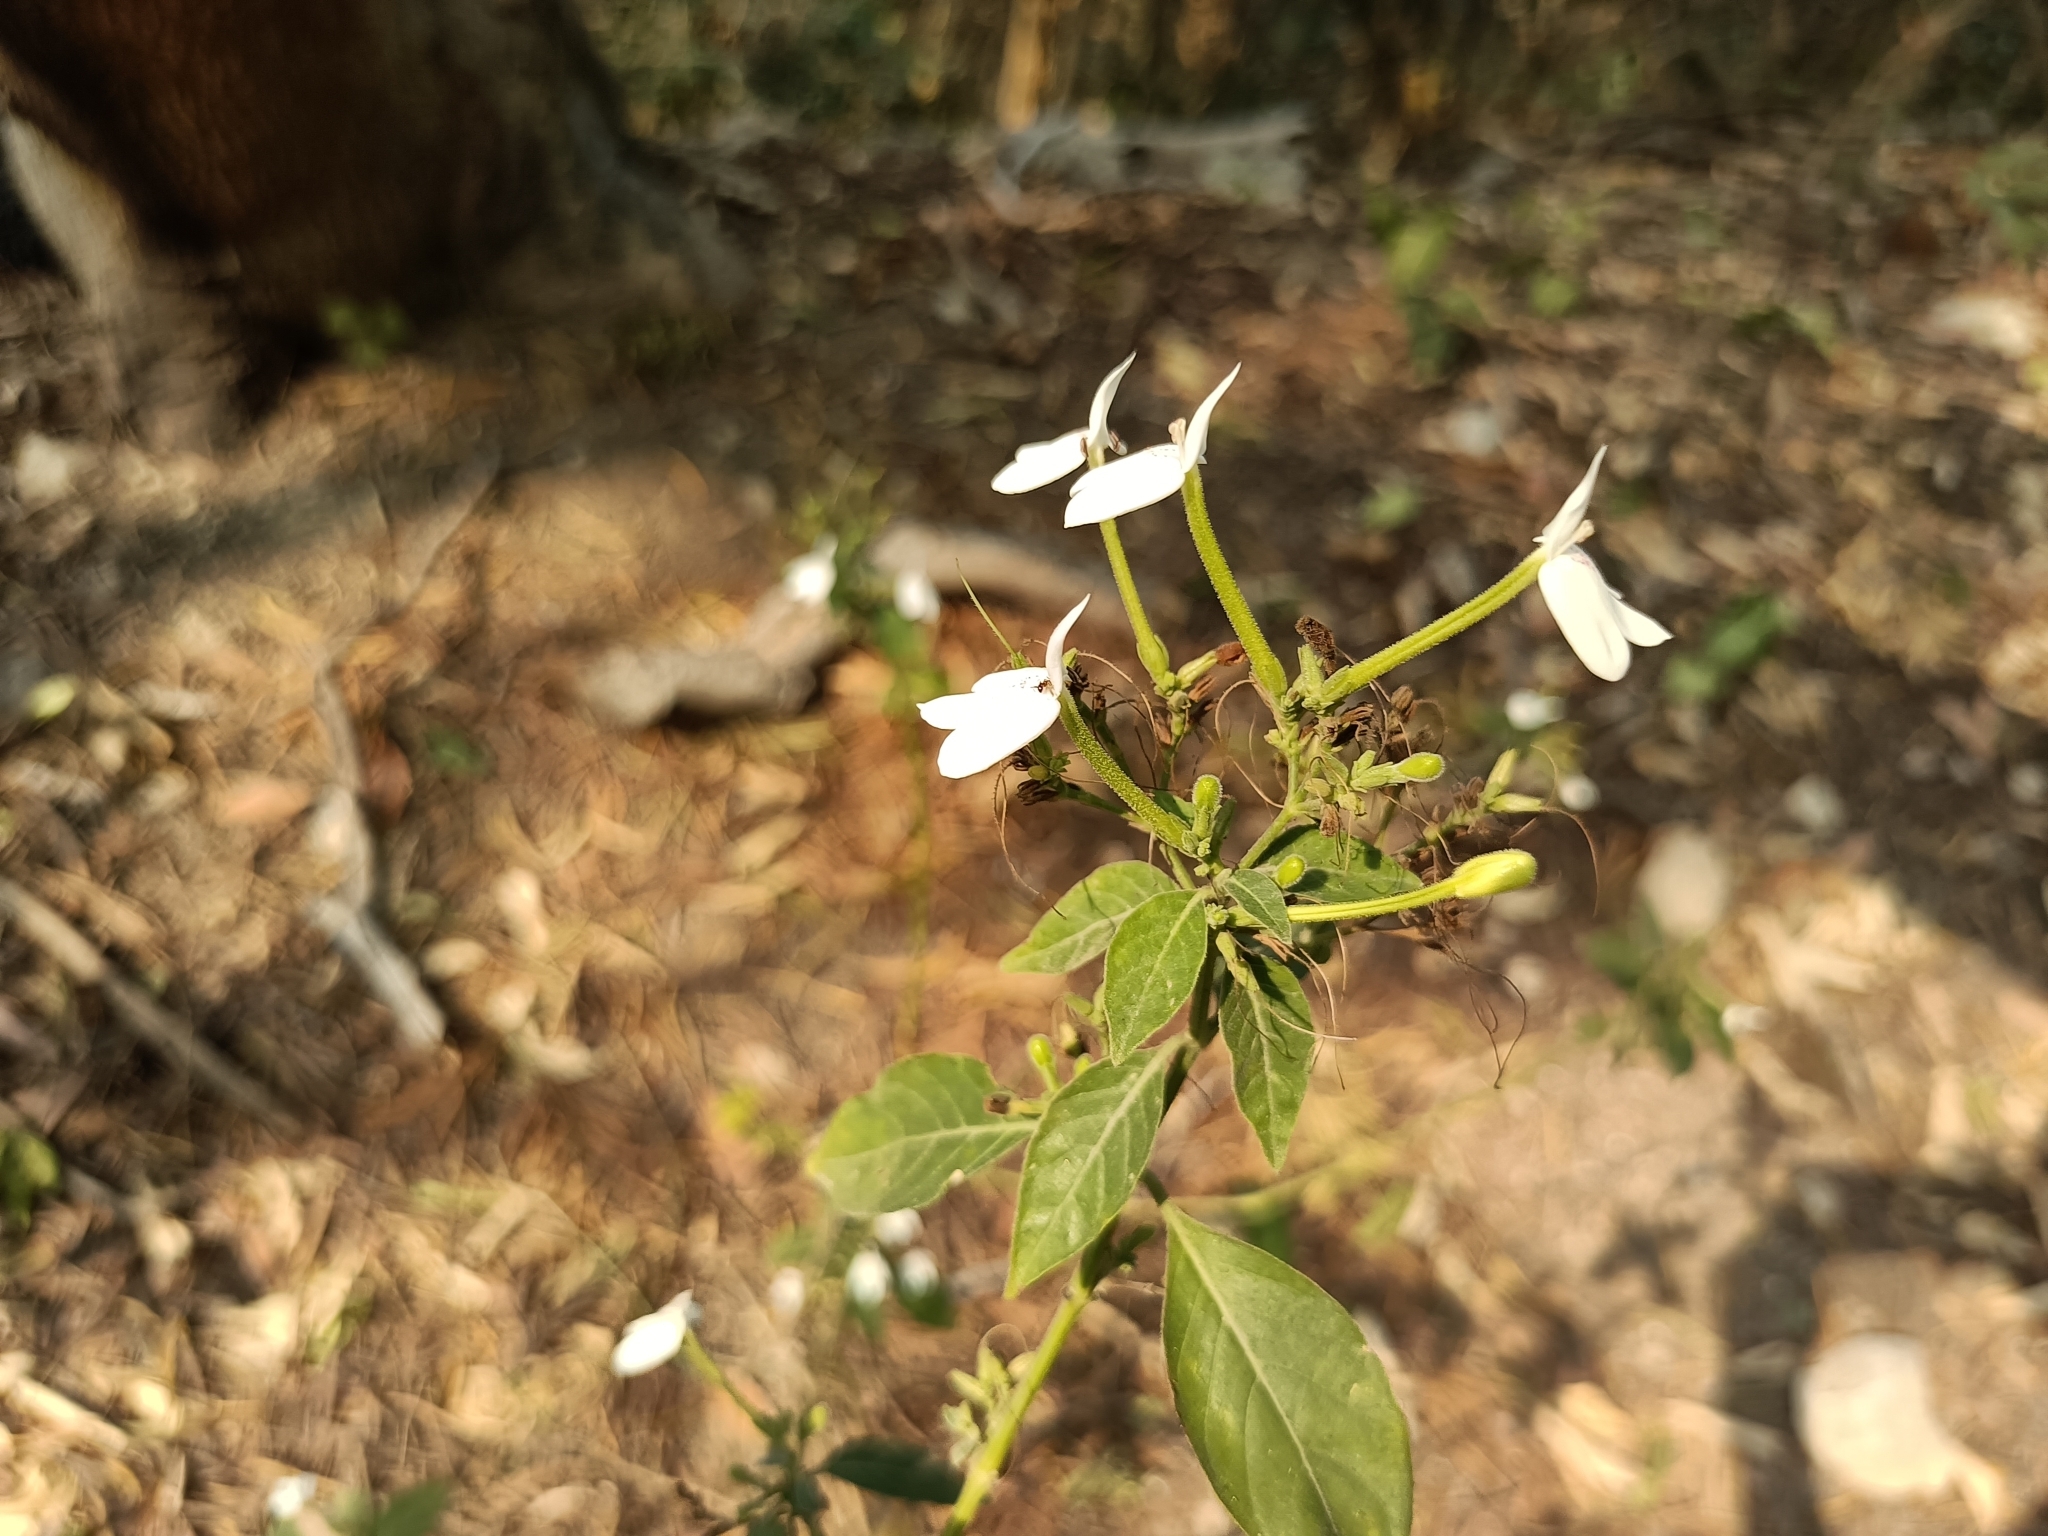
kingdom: Plantae
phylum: Tracheophyta
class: Magnoliopsida
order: Lamiales
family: Acanthaceae
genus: Rhinacanthus
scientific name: Rhinacanthus nasutus
